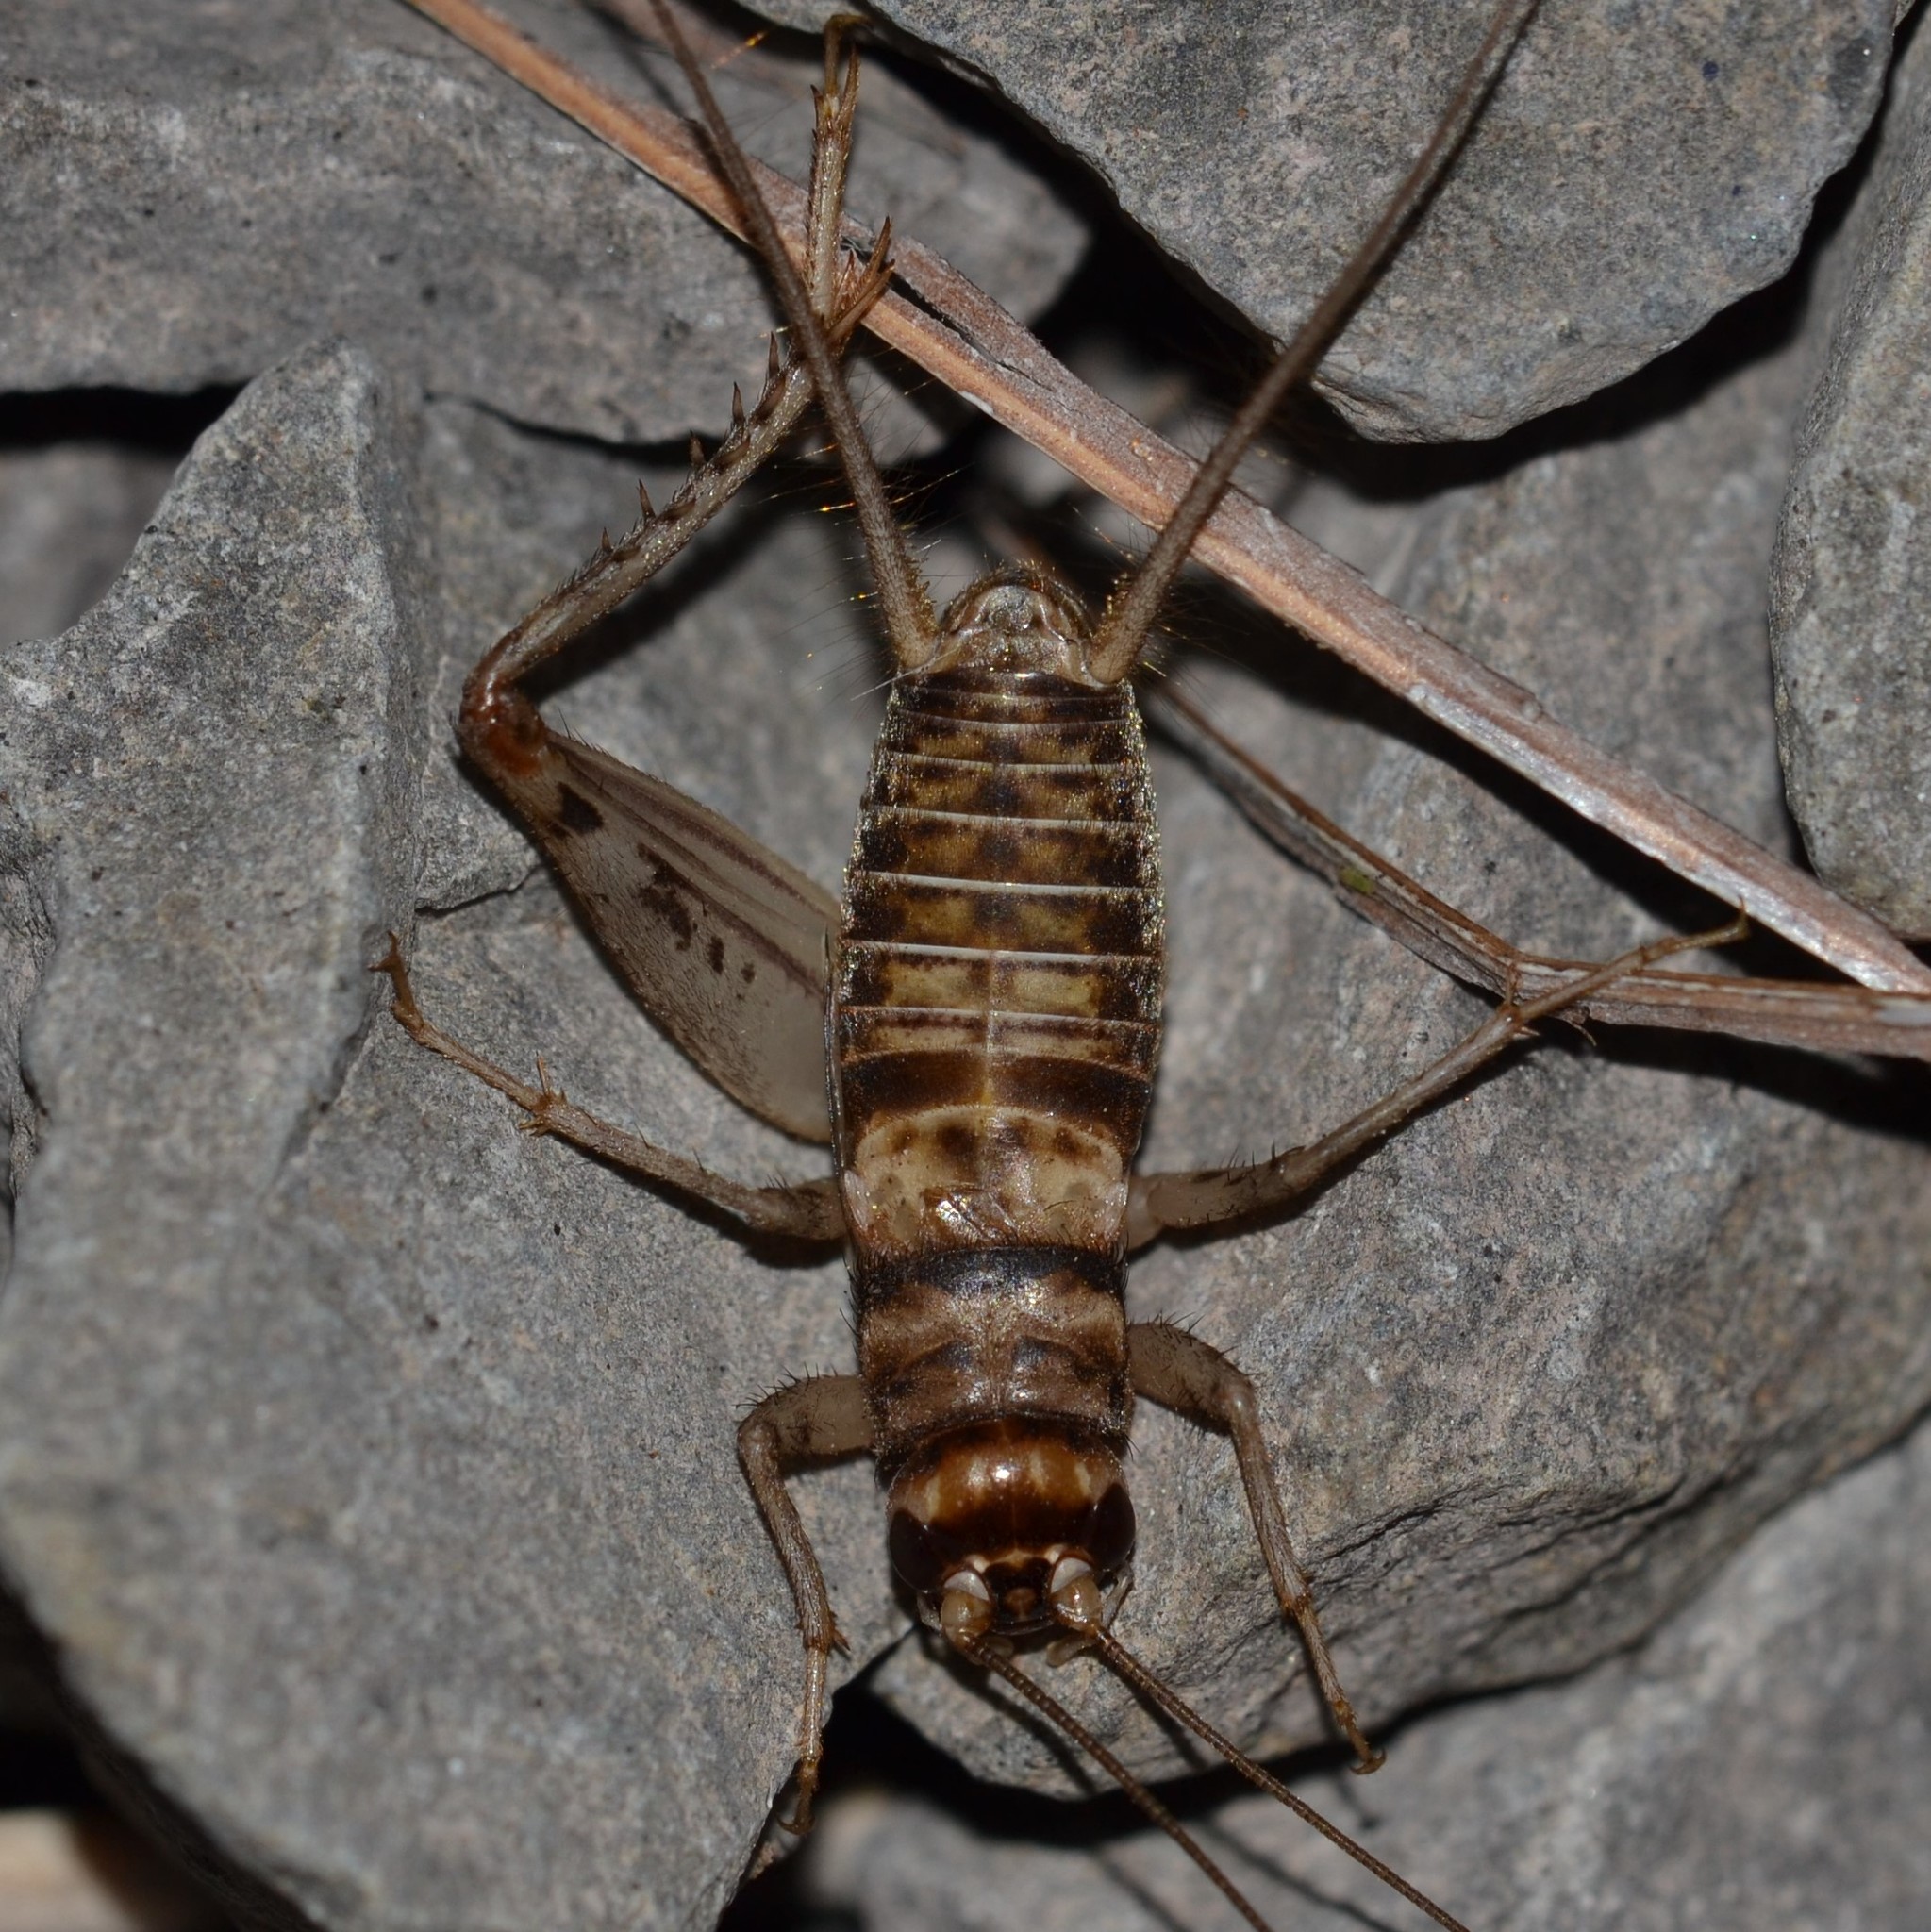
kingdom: Animalia
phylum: Arthropoda
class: Insecta
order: Orthoptera
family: Gryllidae
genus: Gryllodes
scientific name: Gryllodes sigillatus
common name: Tropical house cricket
